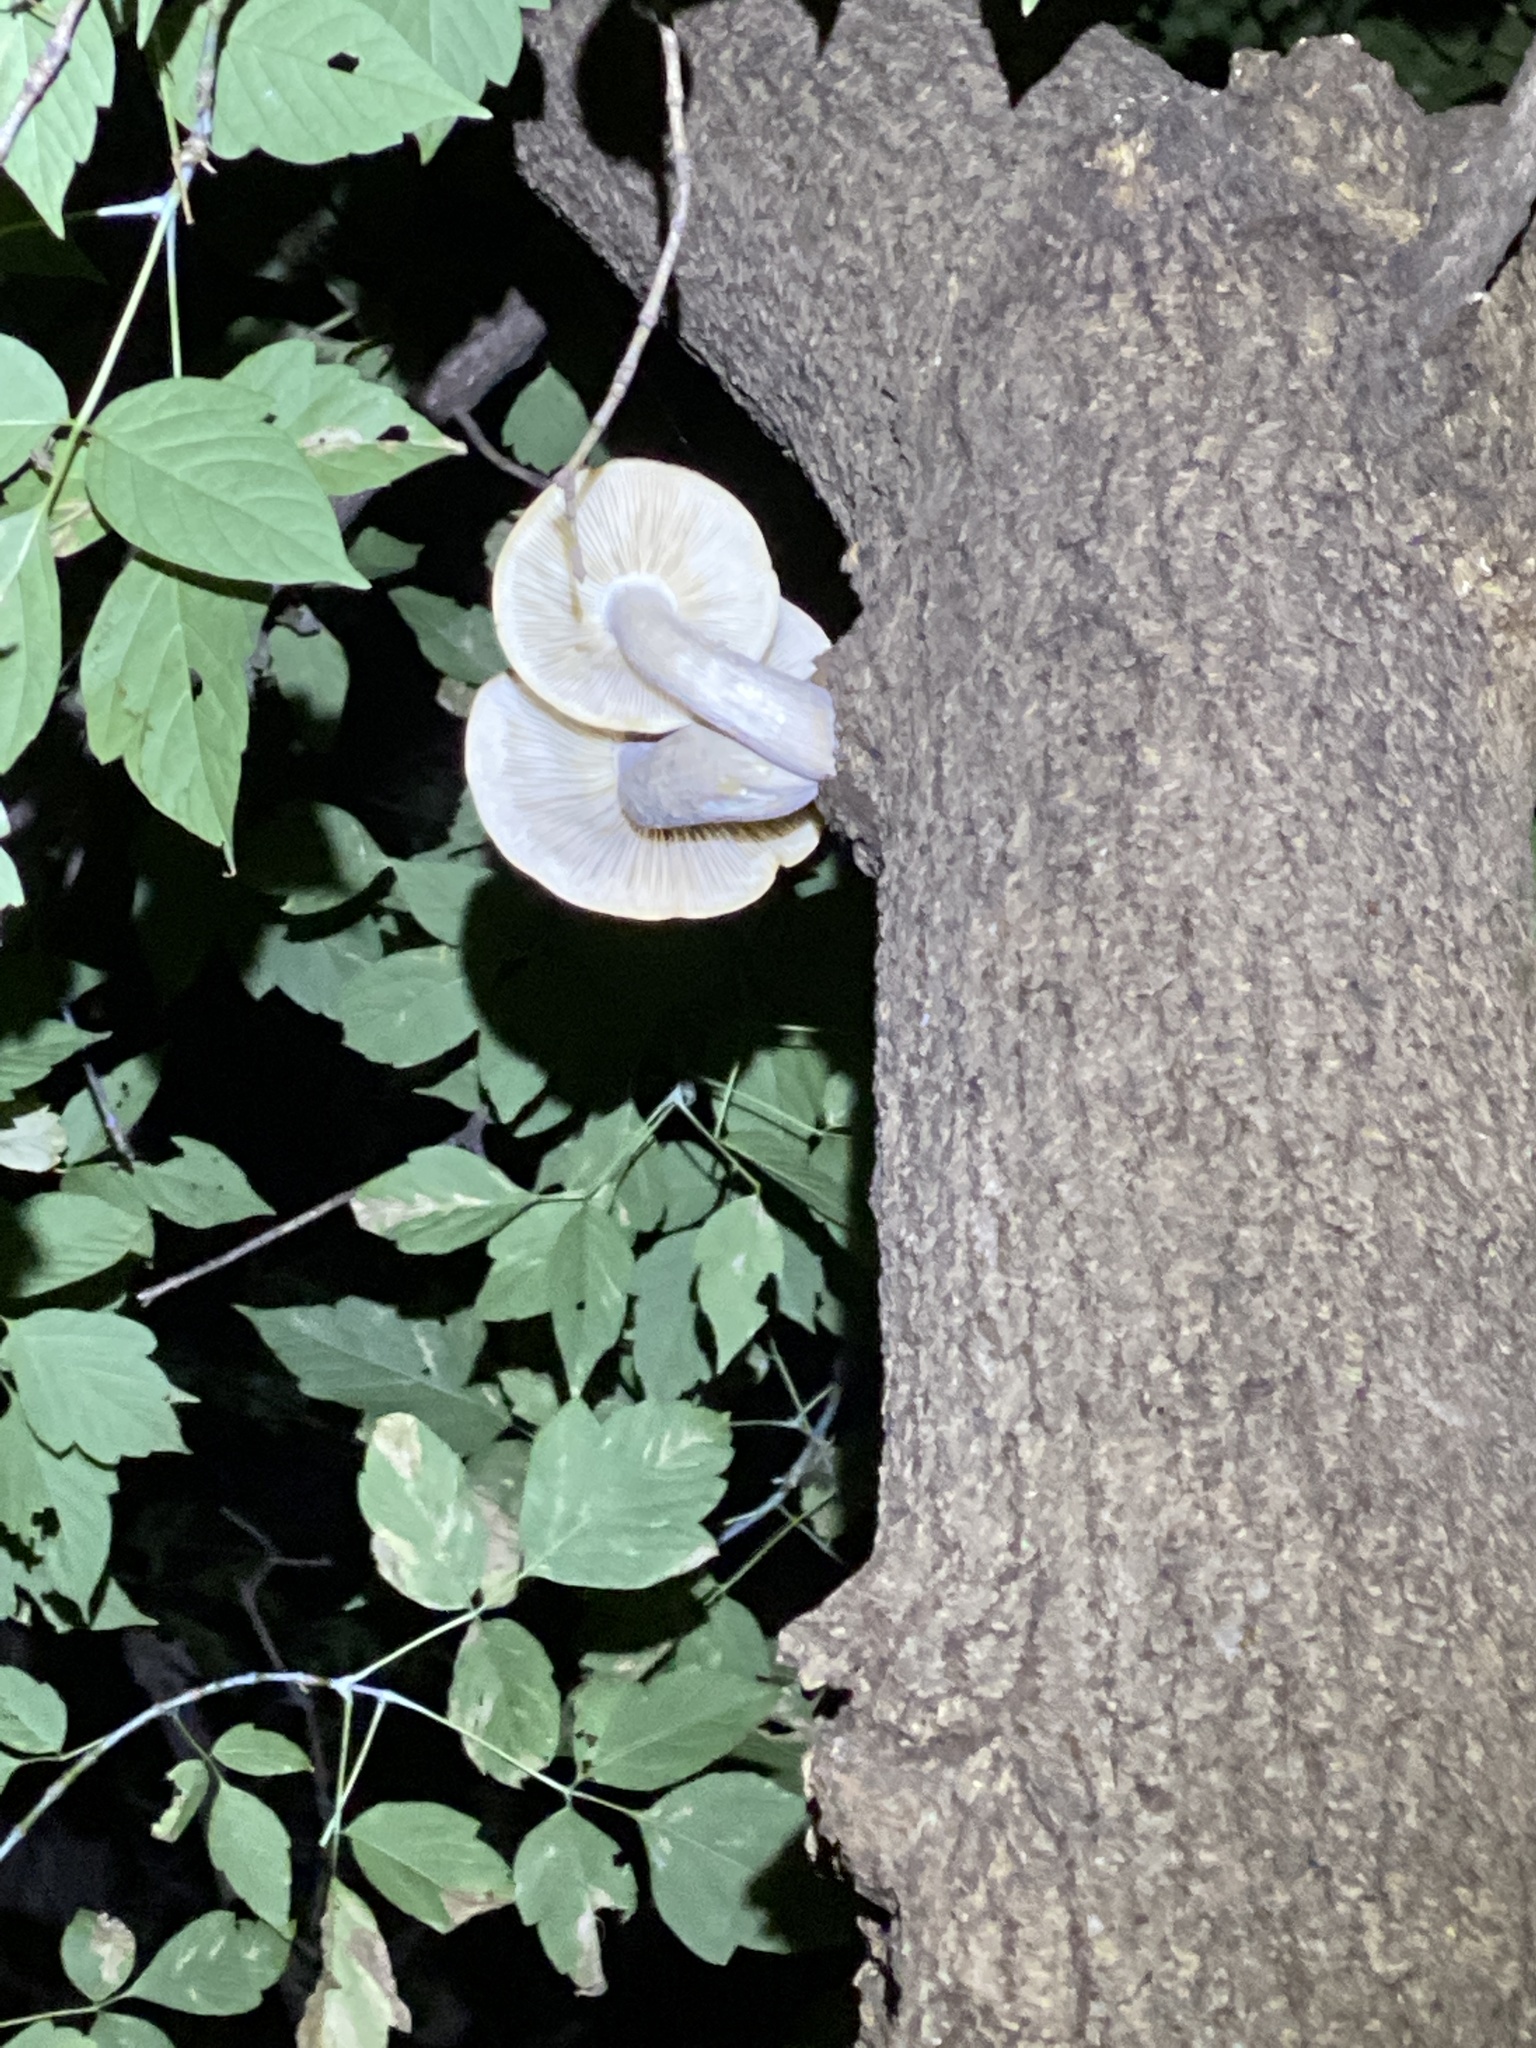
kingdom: Fungi
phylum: Basidiomycota
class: Agaricomycetes
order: Agaricales
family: Lyophyllaceae
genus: Hypsizygus
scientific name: Hypsizygus ulmarius
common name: Elm leech
